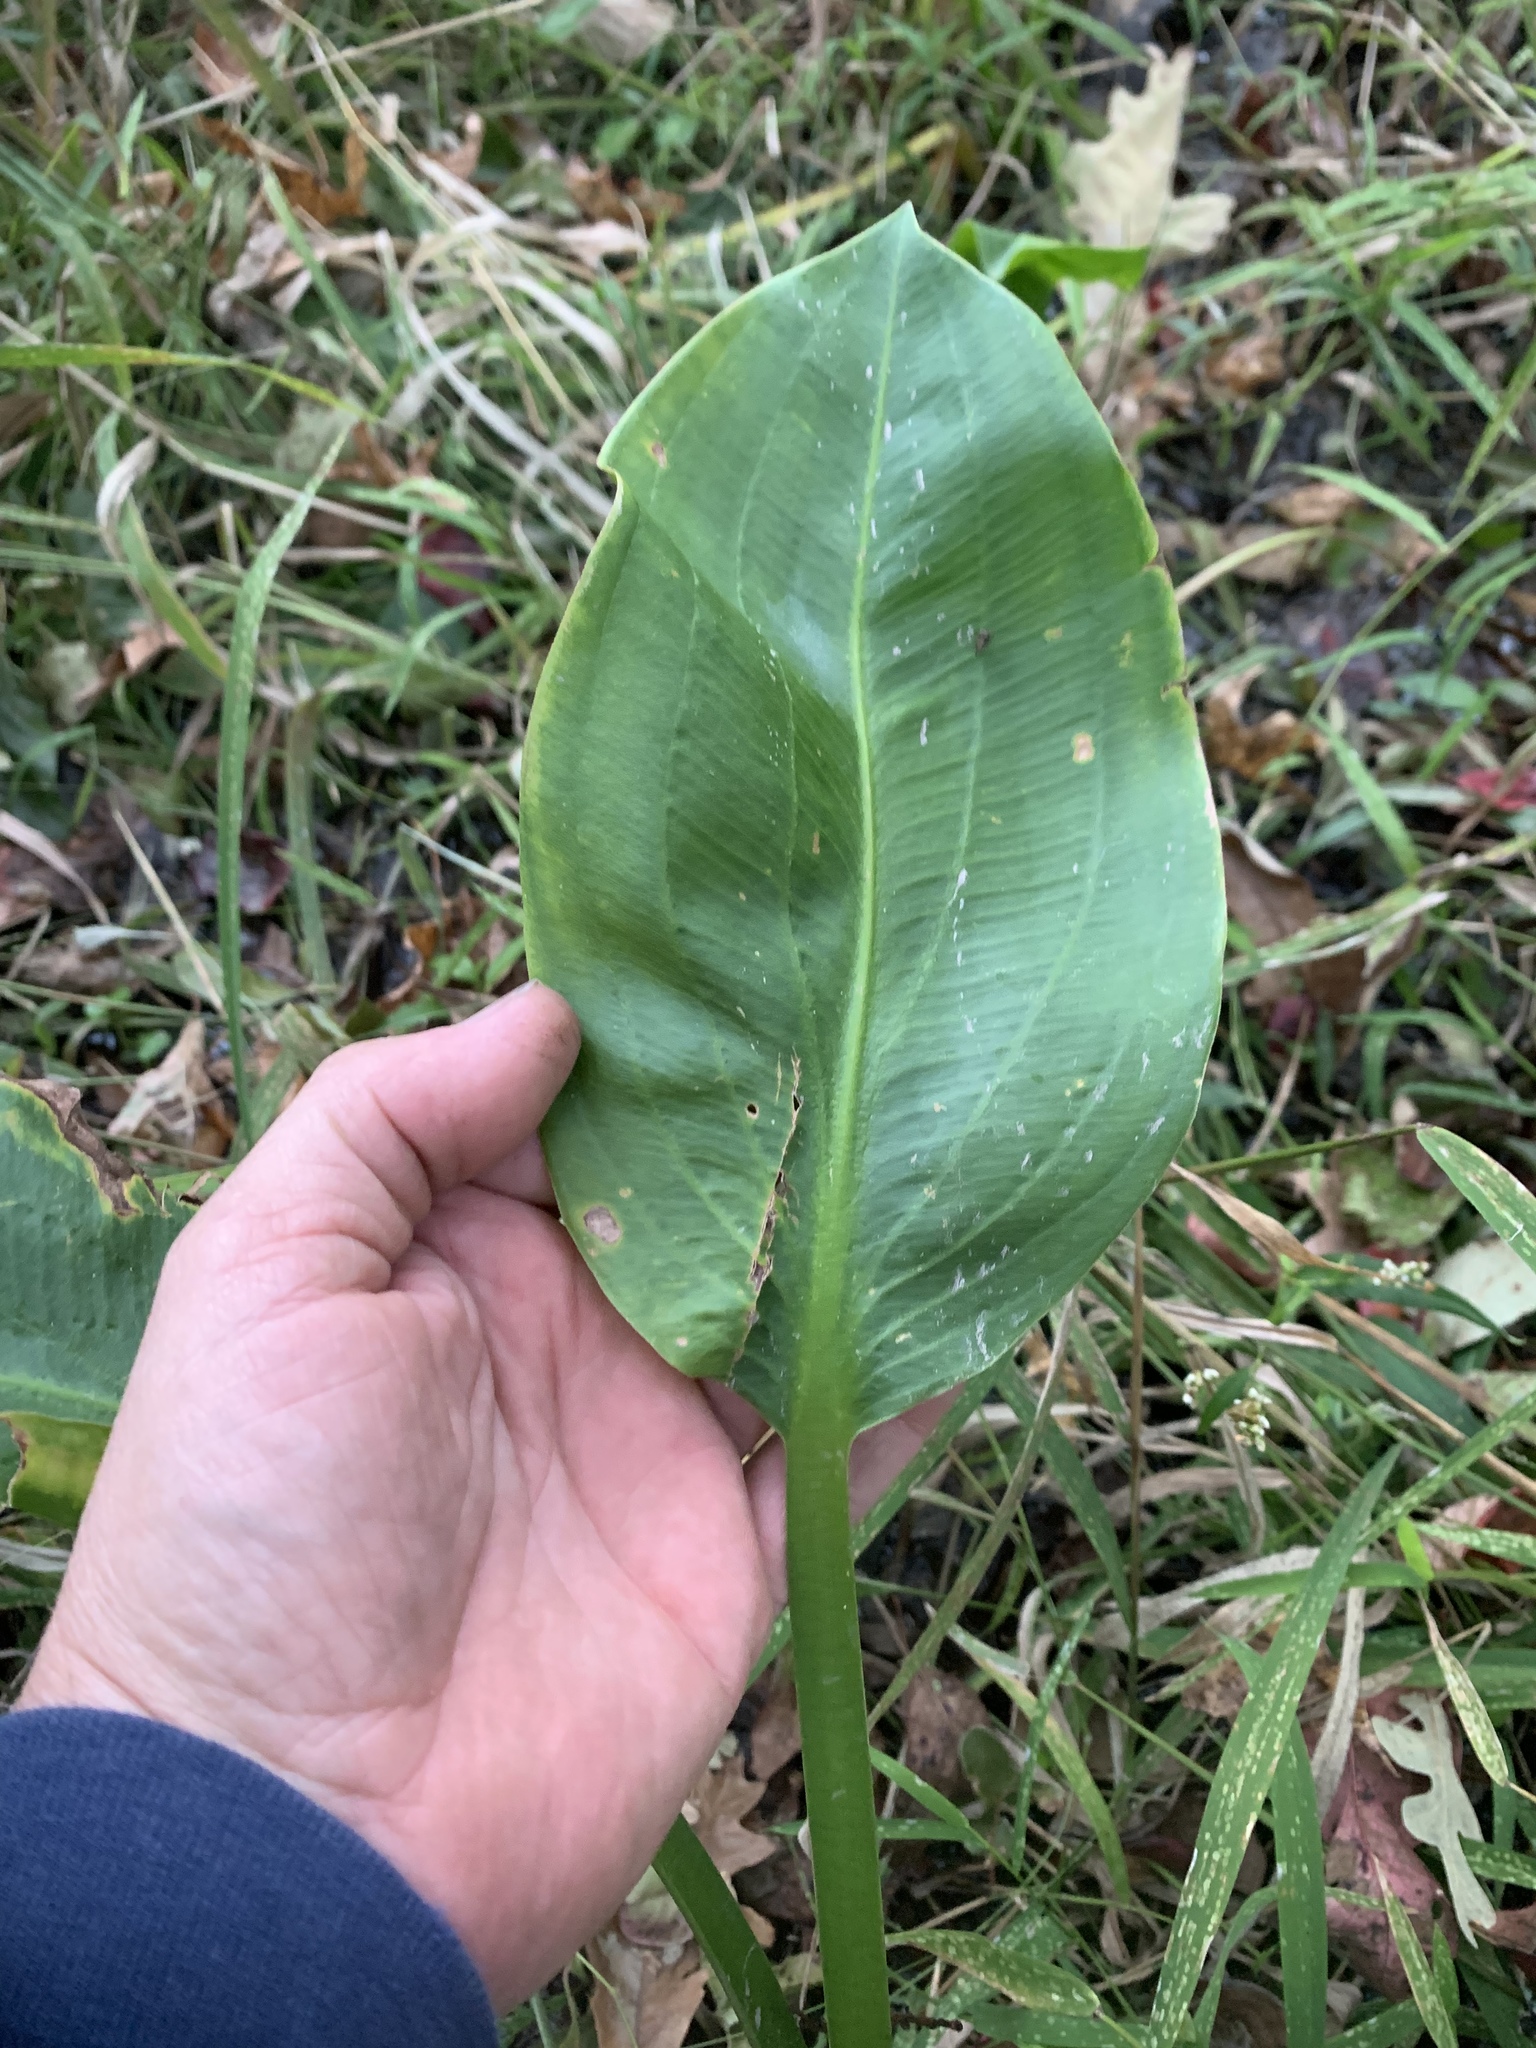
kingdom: Plantae
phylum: Tracheophyta
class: Liliopsida
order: Alismatales
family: Alismataceae
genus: Sagittaria
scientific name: Sagittaria platyphylla
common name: Broad-leaf arrowhead
